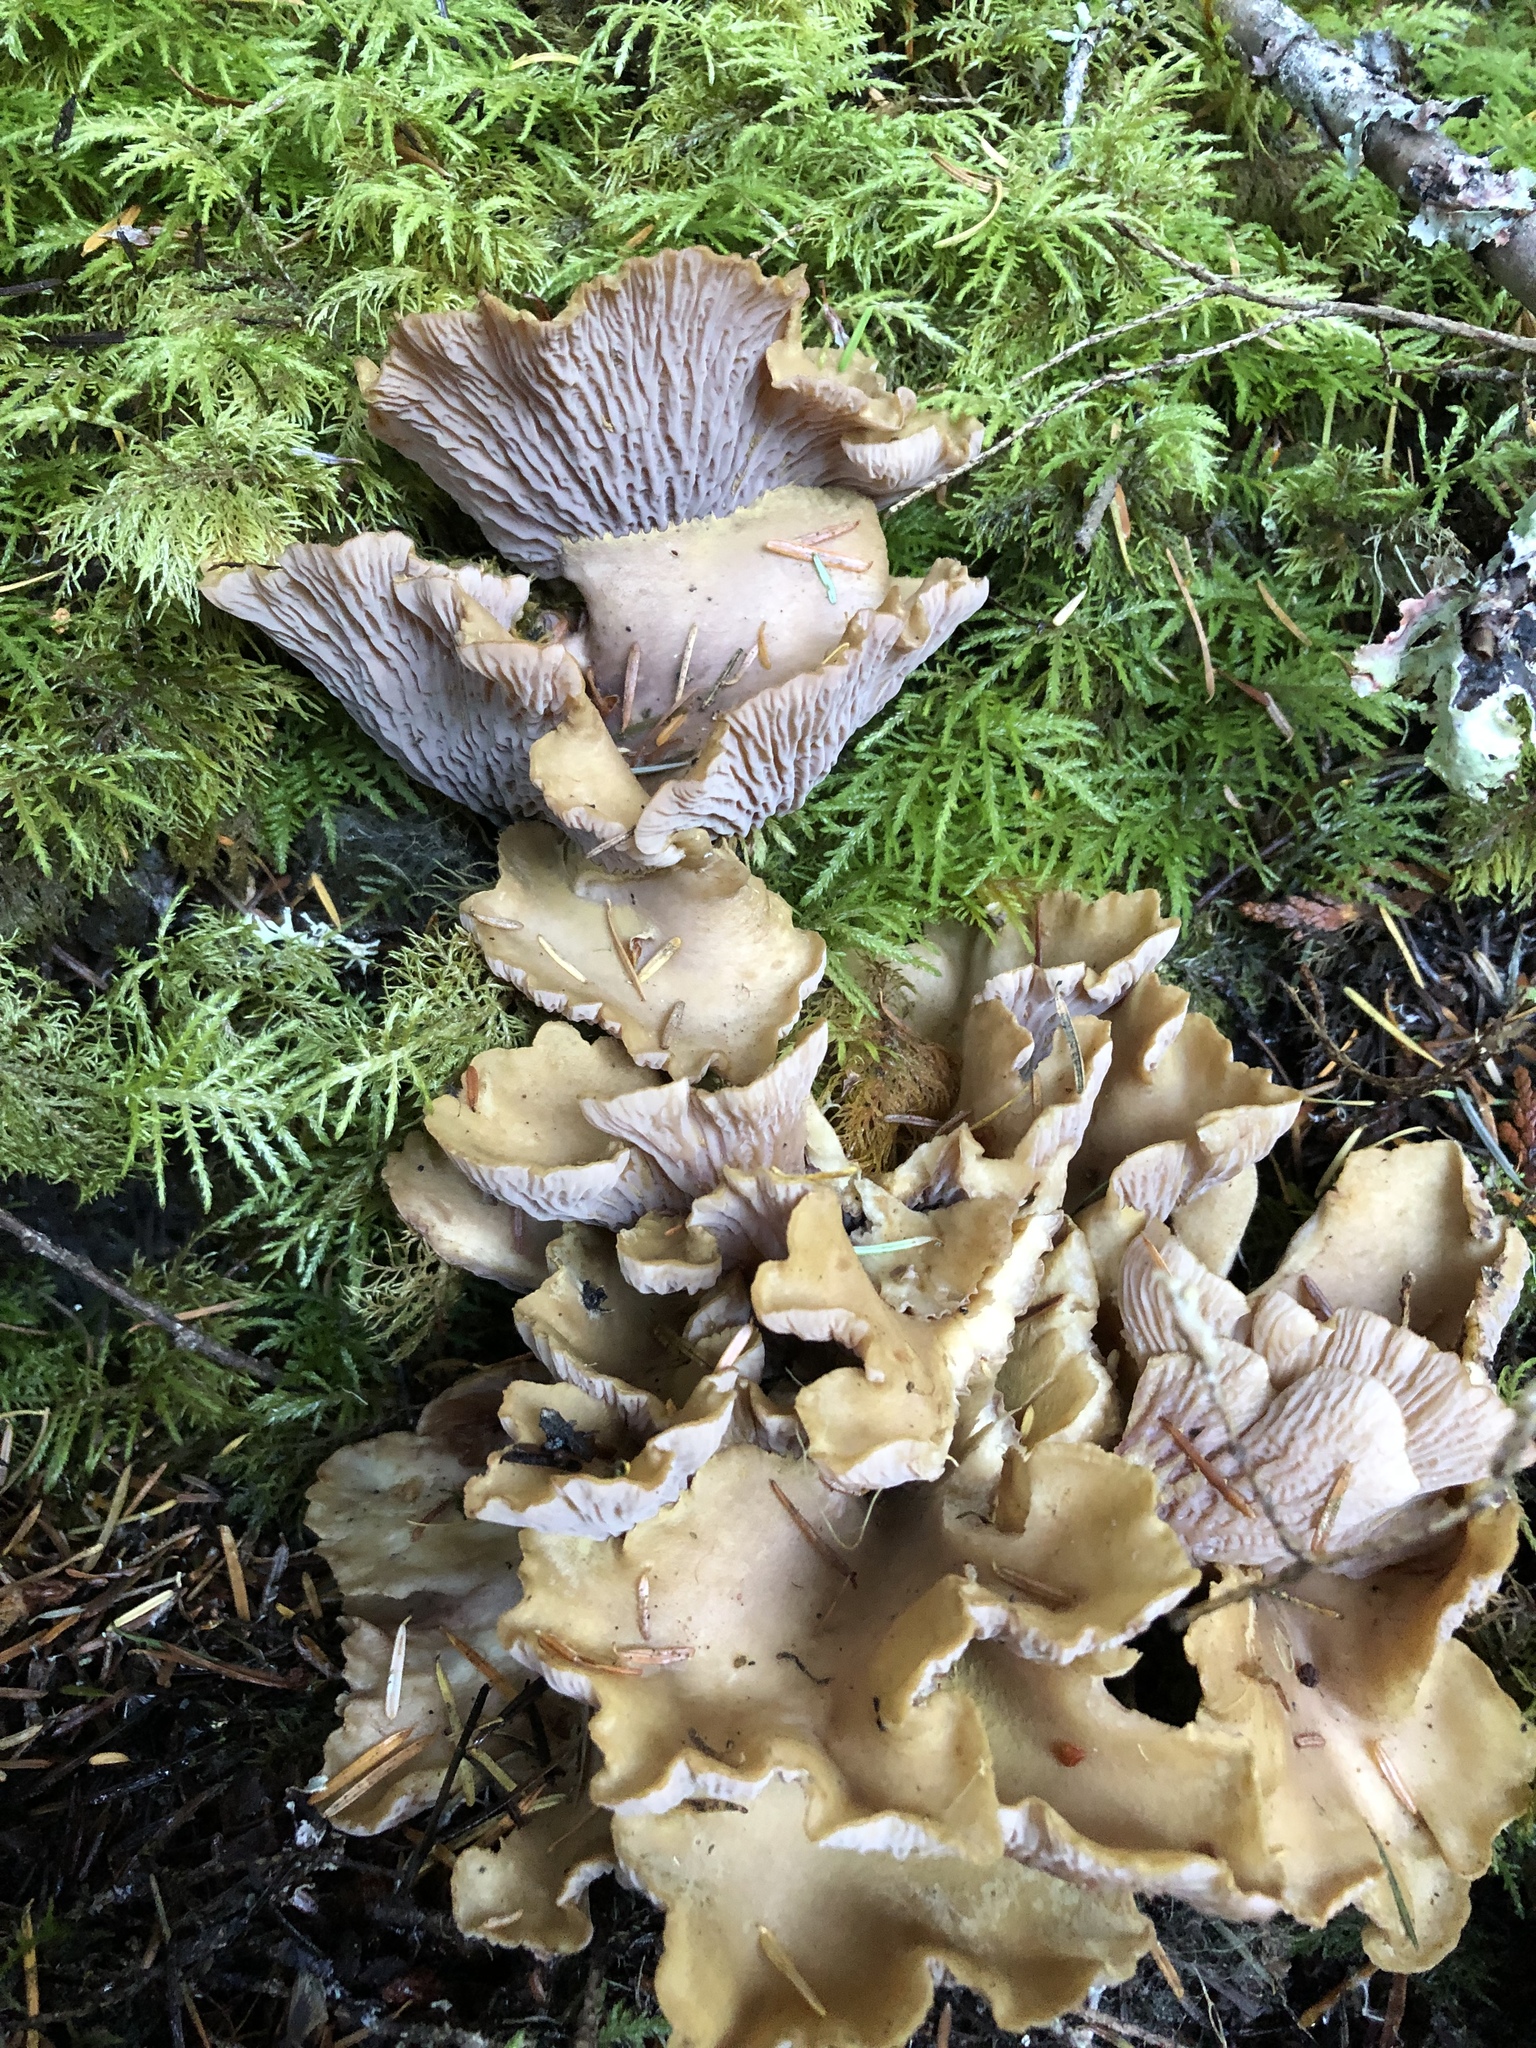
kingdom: Fungi
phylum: Basidiomycota
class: Agaricomycetes
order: Gomphales
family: Gomphaceae
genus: Gomphus
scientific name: Gomphus clavatus
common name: Pig's ear
